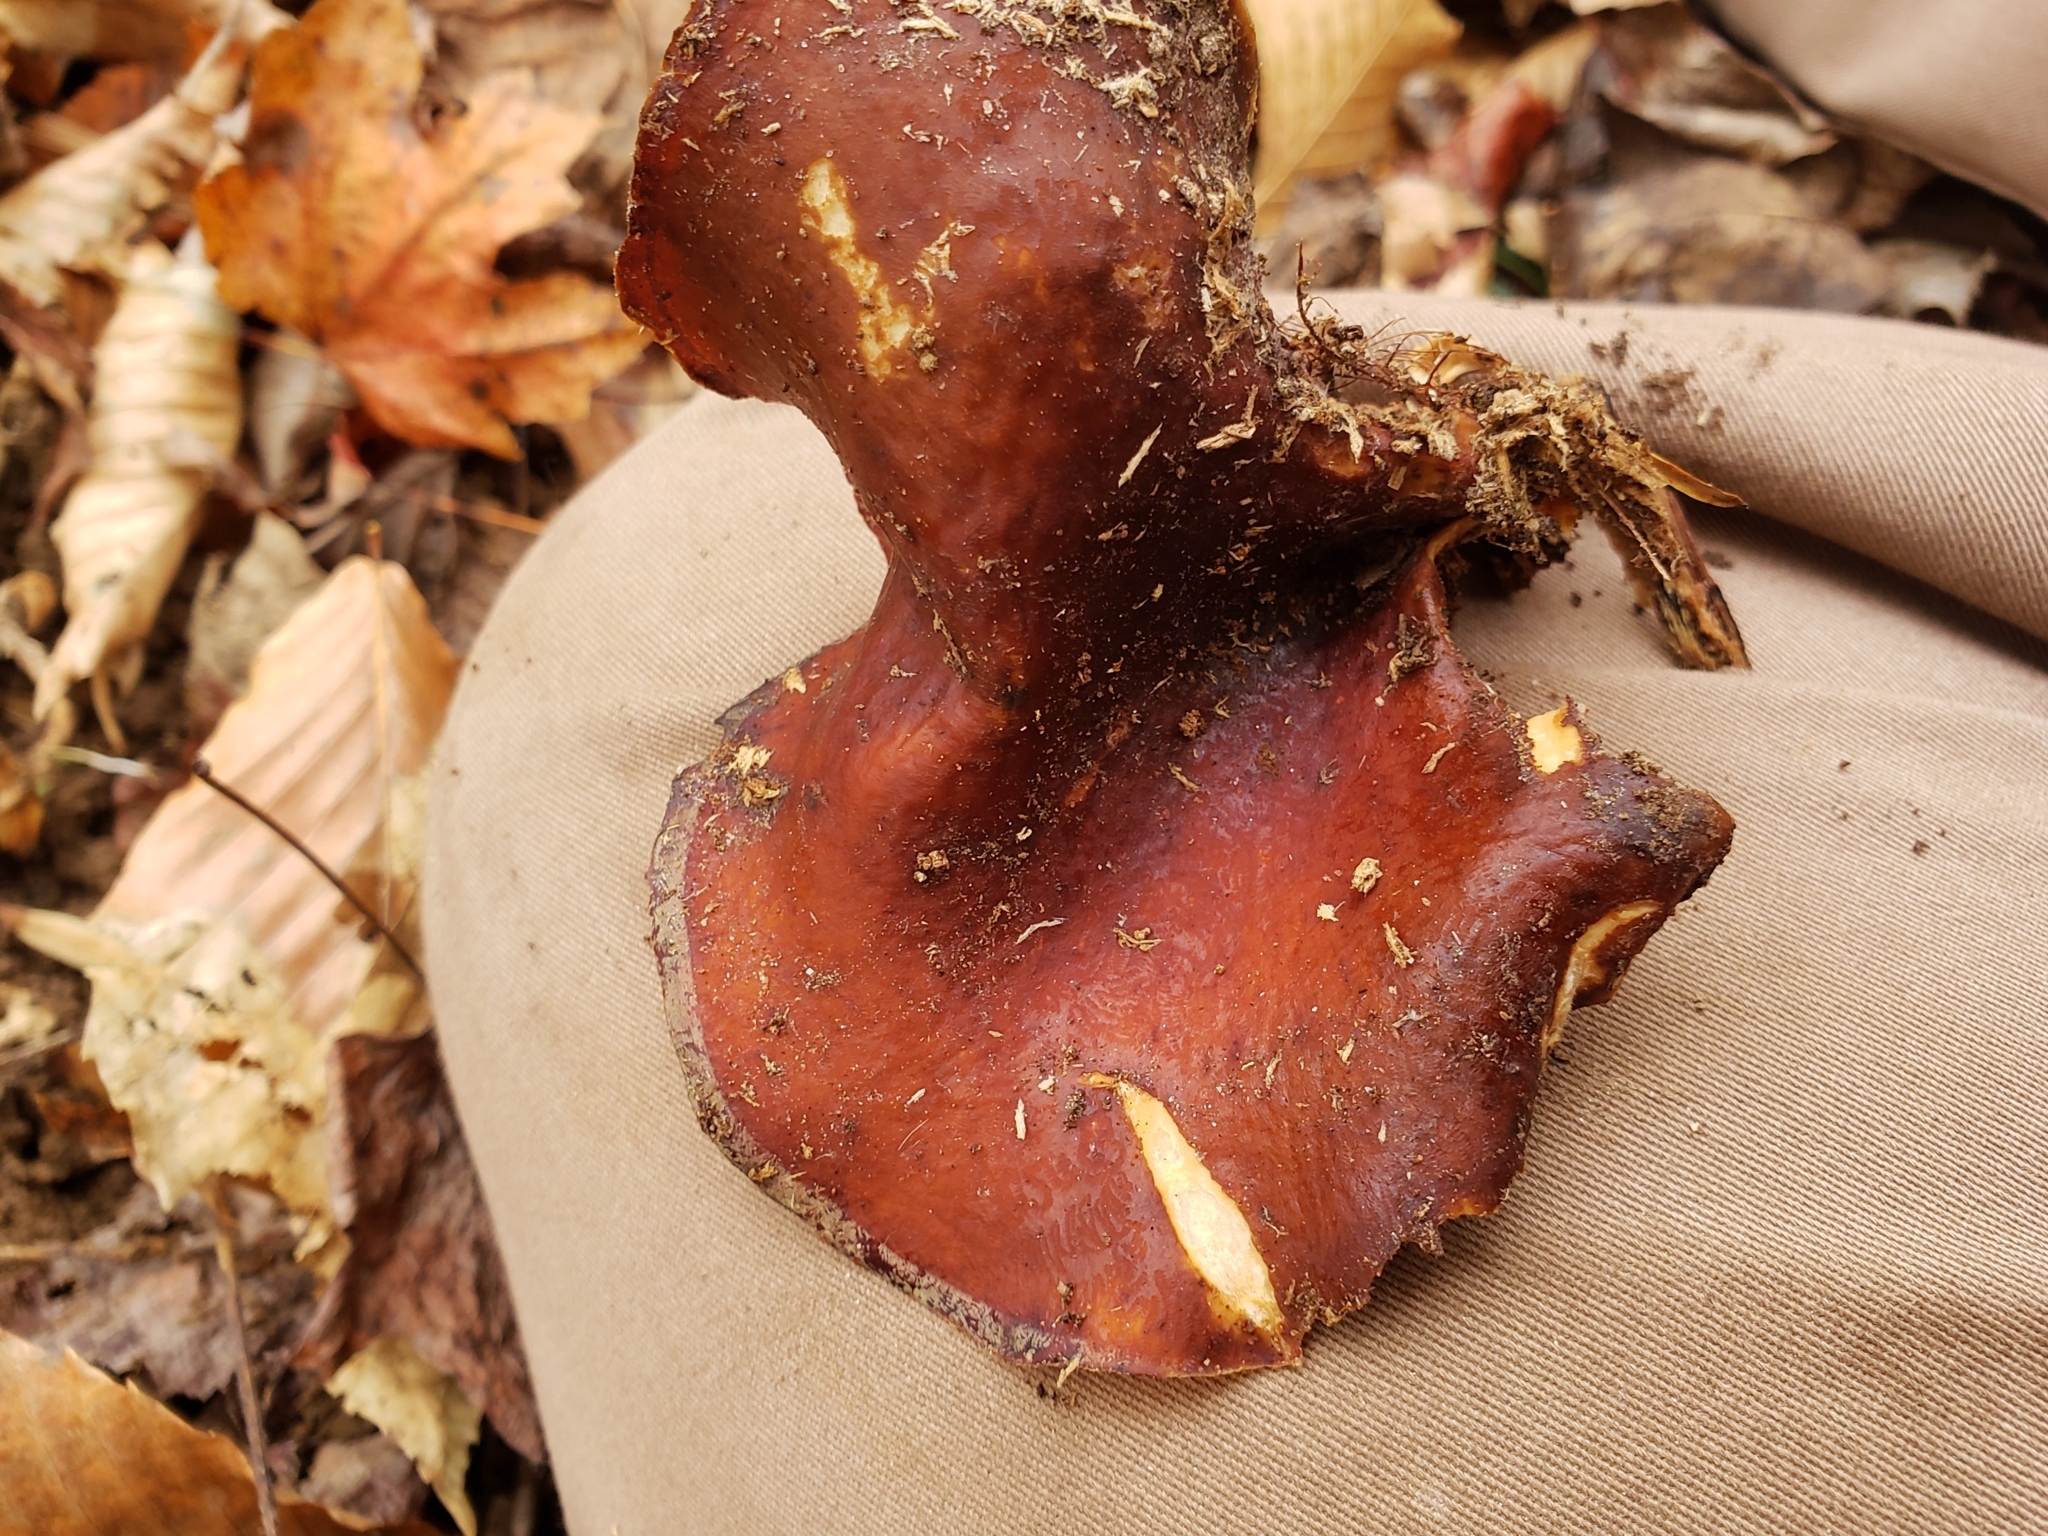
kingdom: Fungi
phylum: Basidiomycota
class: Agaricomycetes
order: Polyporales
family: Polyporaceae
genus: Picipes
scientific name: Picipes badius
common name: Bay polypore
